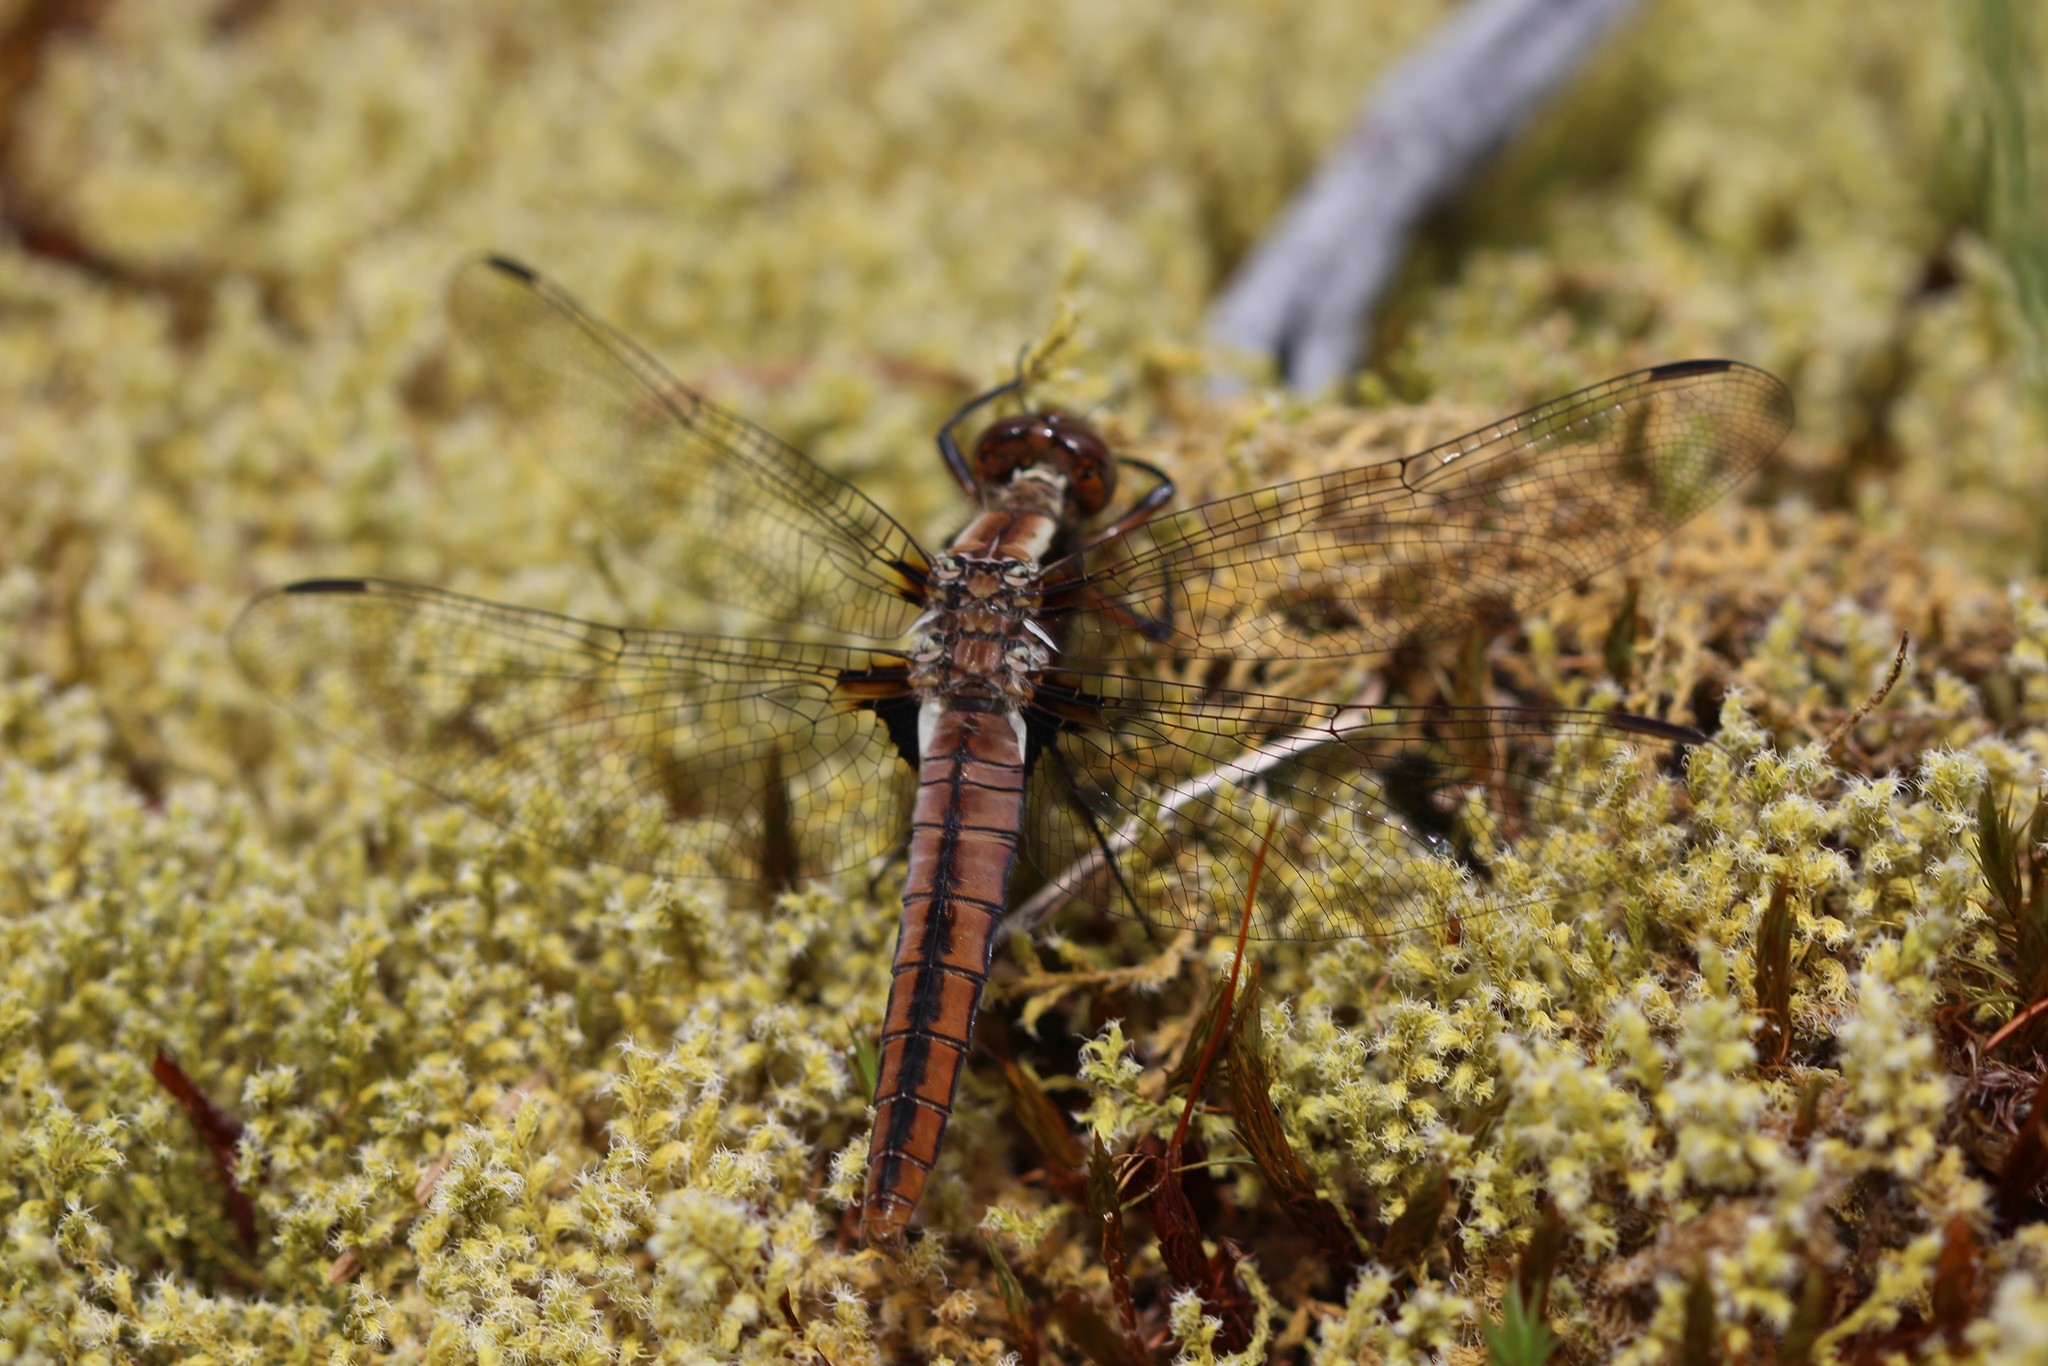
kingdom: Animalia
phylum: Arthropoda
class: Insecta
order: Odonata
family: Libellulidae
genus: Ladona
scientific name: Ladona julia
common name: Chalk-fronted corporal
